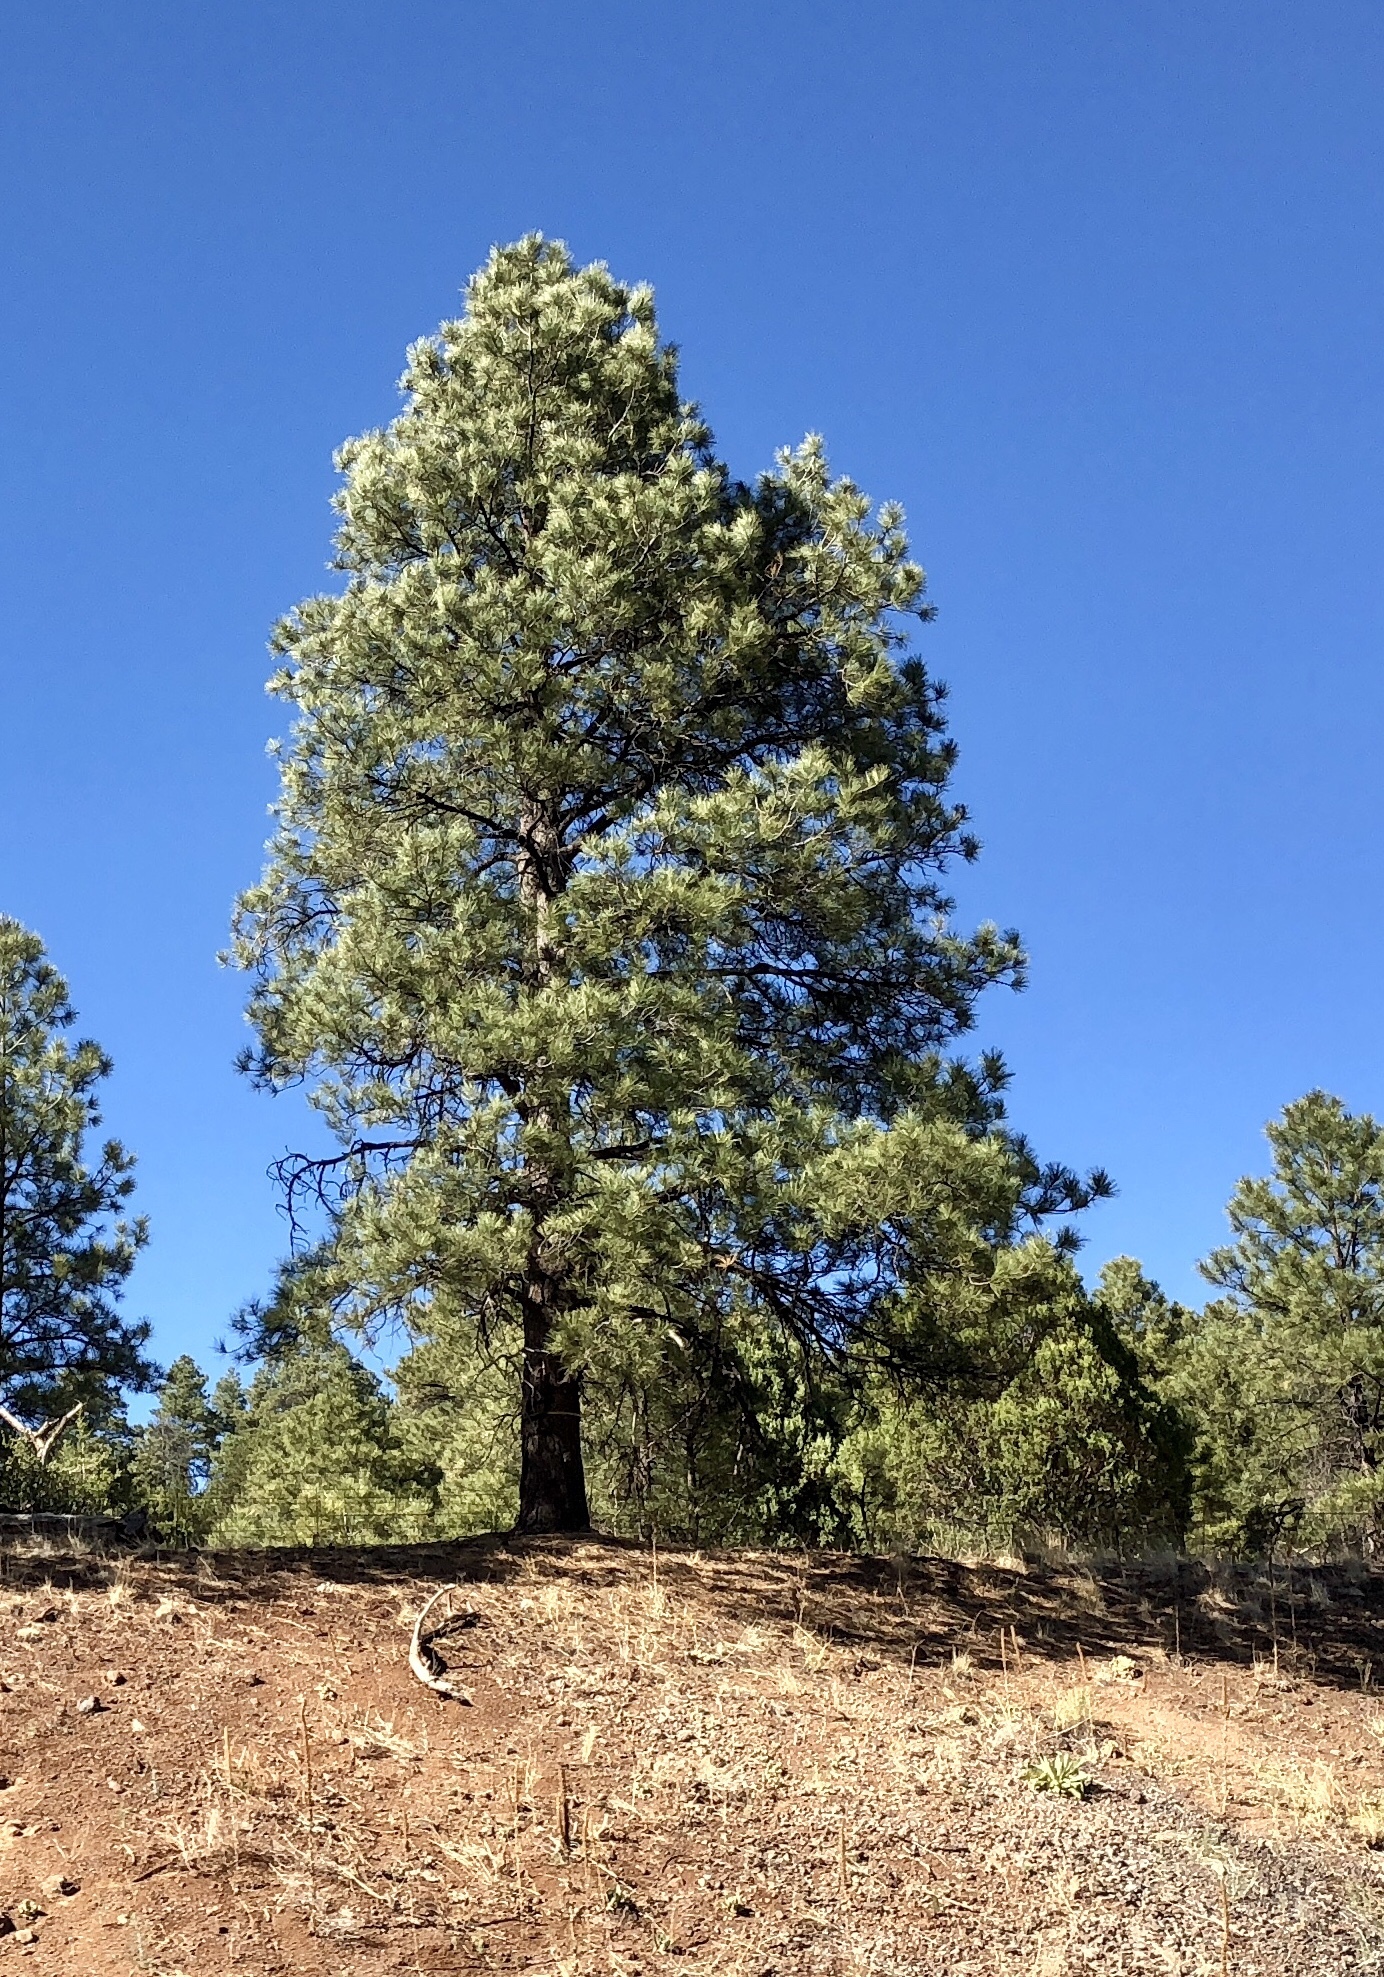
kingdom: Plantae
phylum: Tracheophyta
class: Pinopsida
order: Pinales
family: Pinaceae
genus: Pinus
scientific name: Pinus ponderosa
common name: Western yellow-pine
